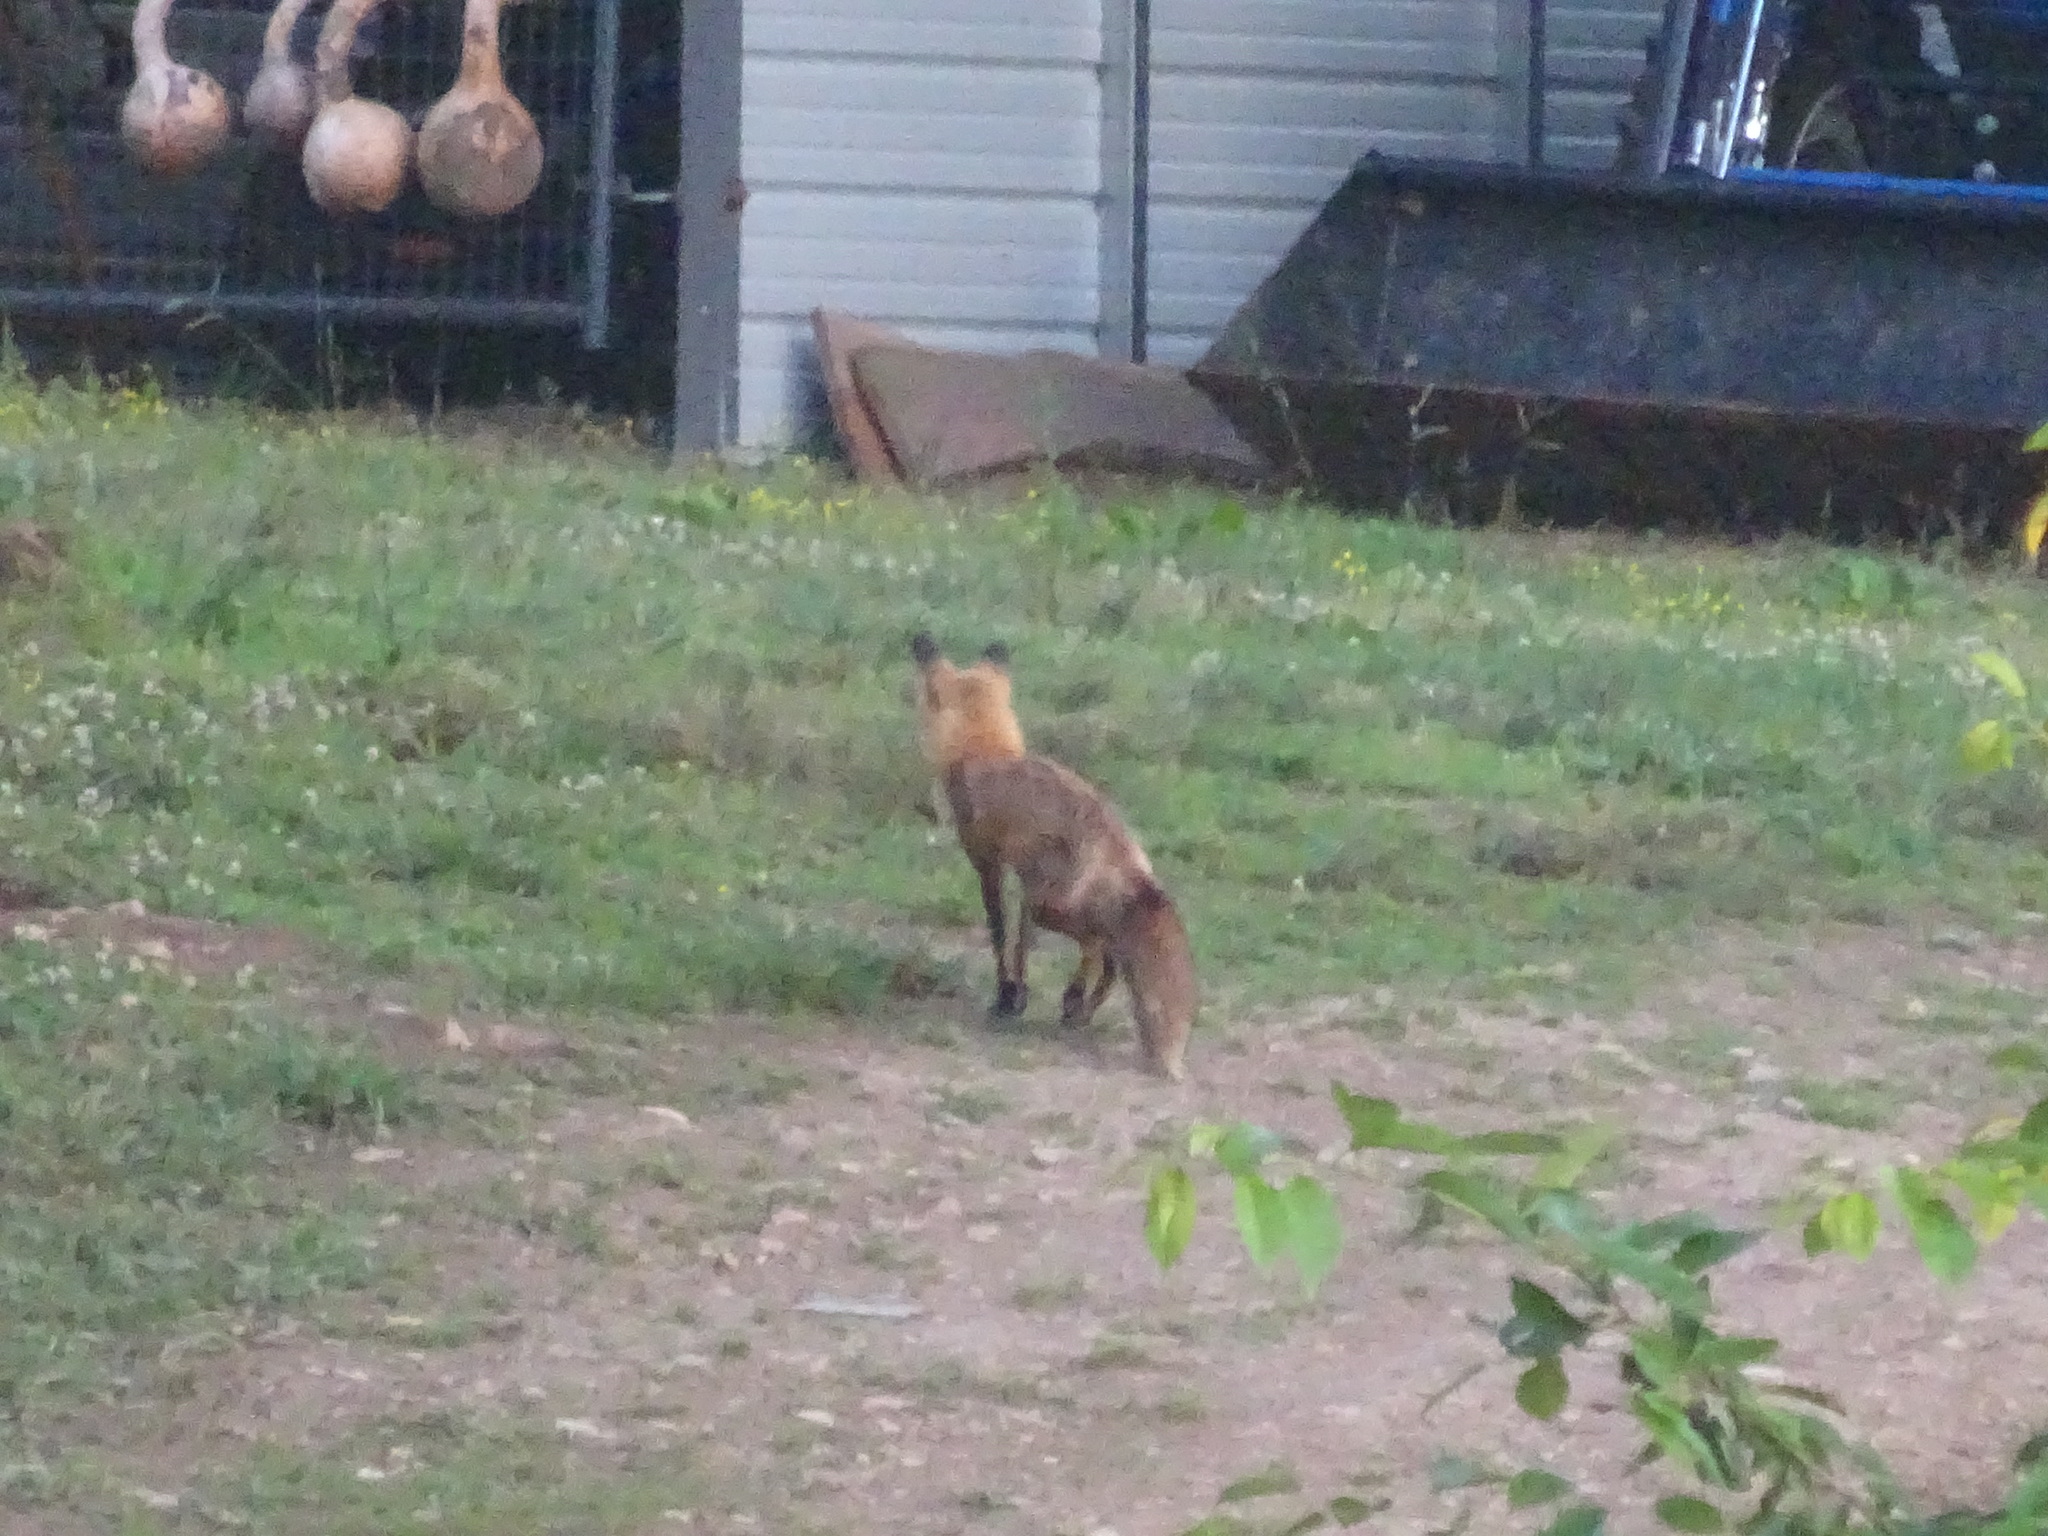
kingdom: Animalia
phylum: Chordata
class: Mammalia
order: Carnivora
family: Canidae
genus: Vulpes
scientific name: Vulpes vulpes
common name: Red fox
